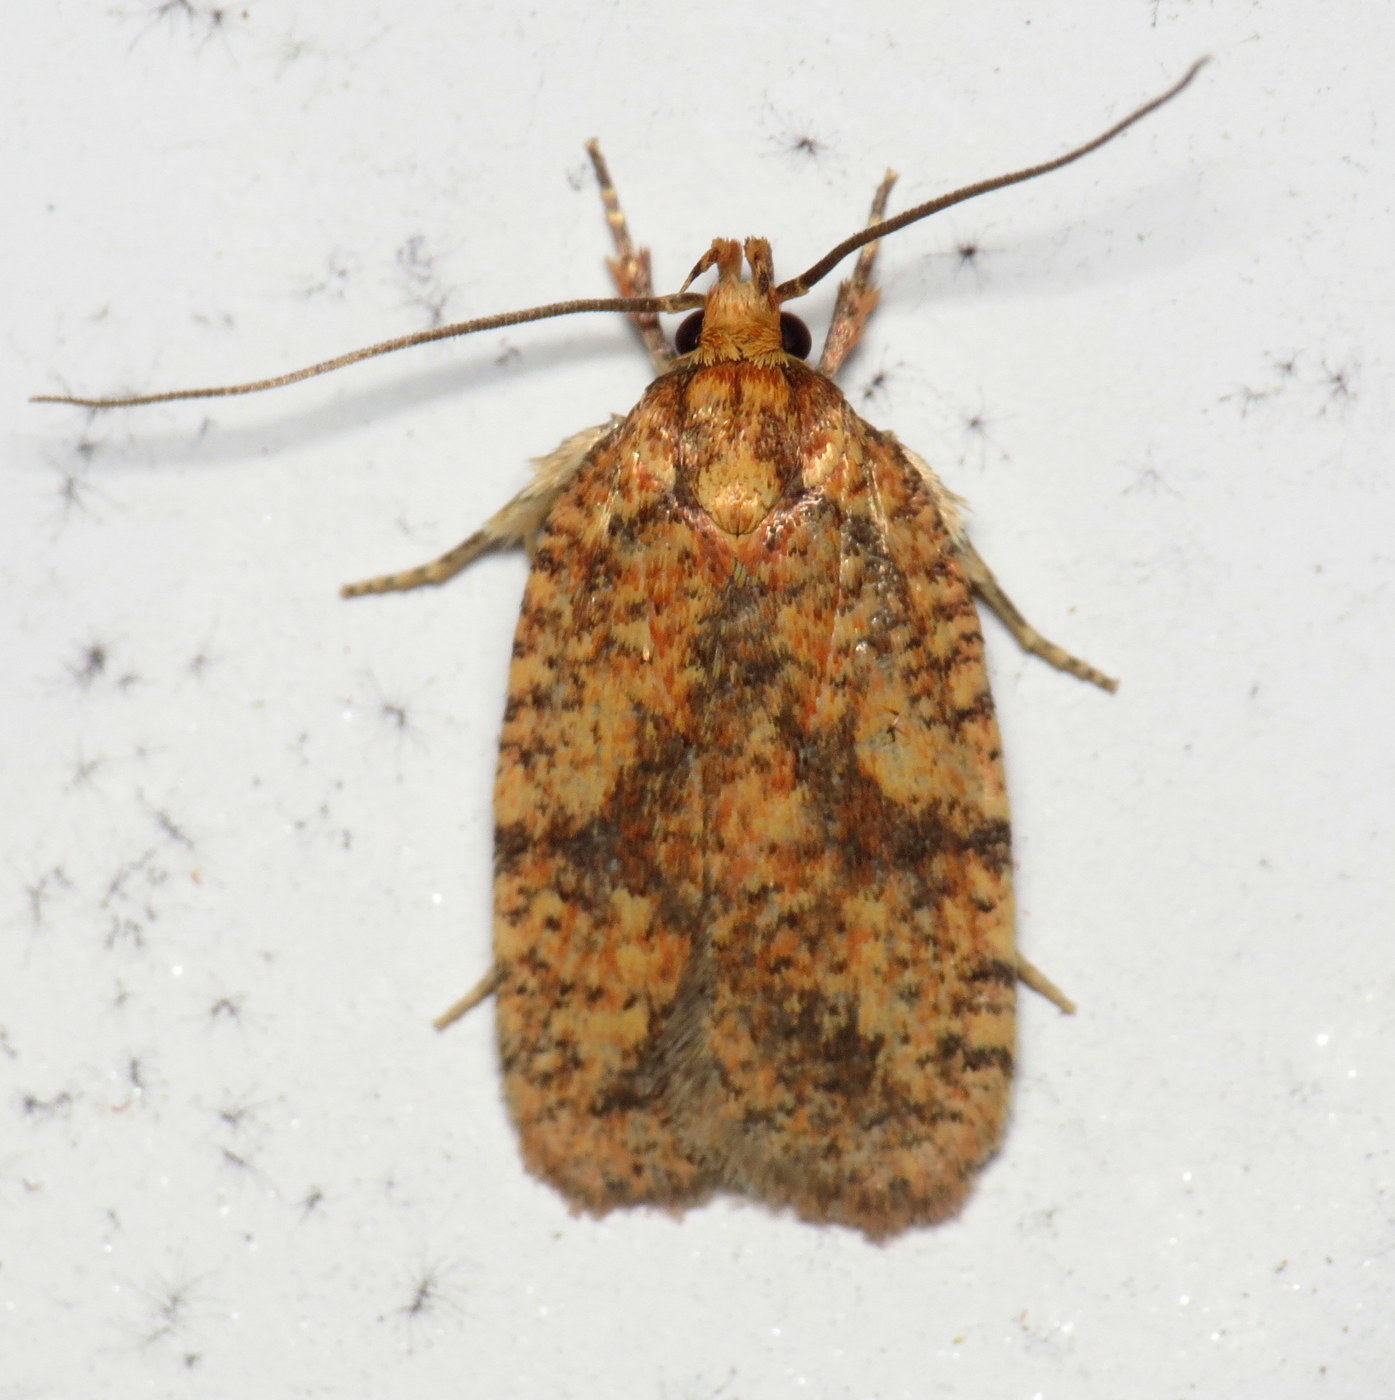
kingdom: Animalia
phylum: Arthropoda
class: Insecta
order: Lepidoptera
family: Depressariidae
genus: Agonopterix
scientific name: Agonopterix robiniella
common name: Four-dotted agonopterix moth
